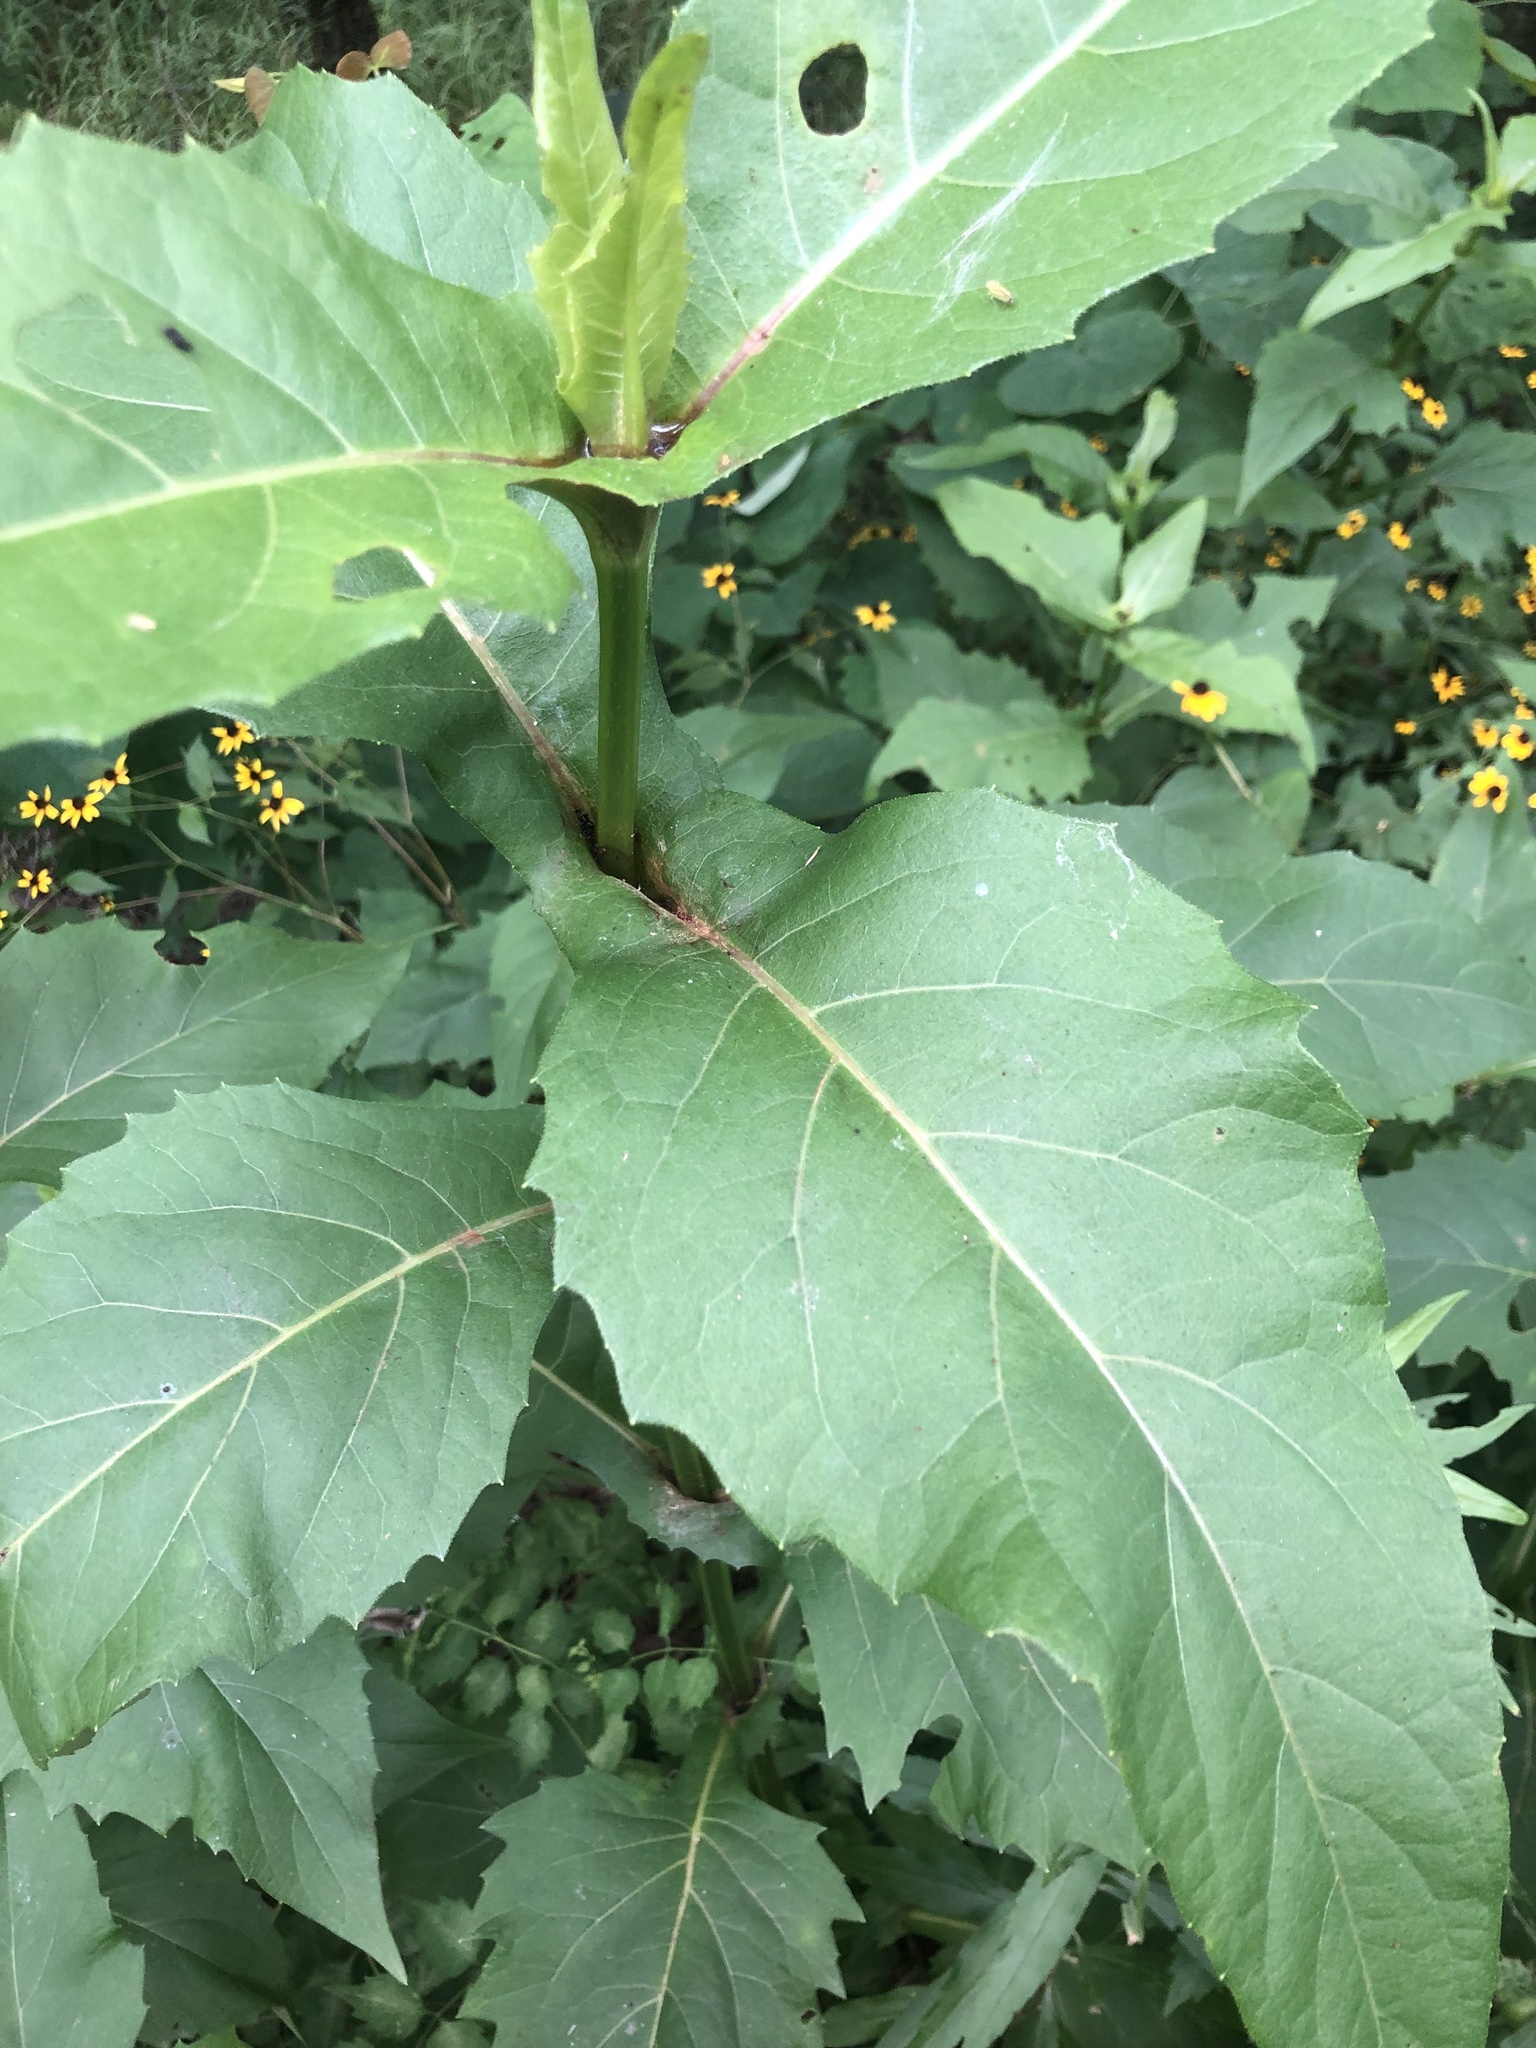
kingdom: Plantae
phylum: Tracheophyta
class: Magnoliopsida
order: Asterales
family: Asteraceae
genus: Silphium
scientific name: Silphium perfoliatum
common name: Cup-plant
